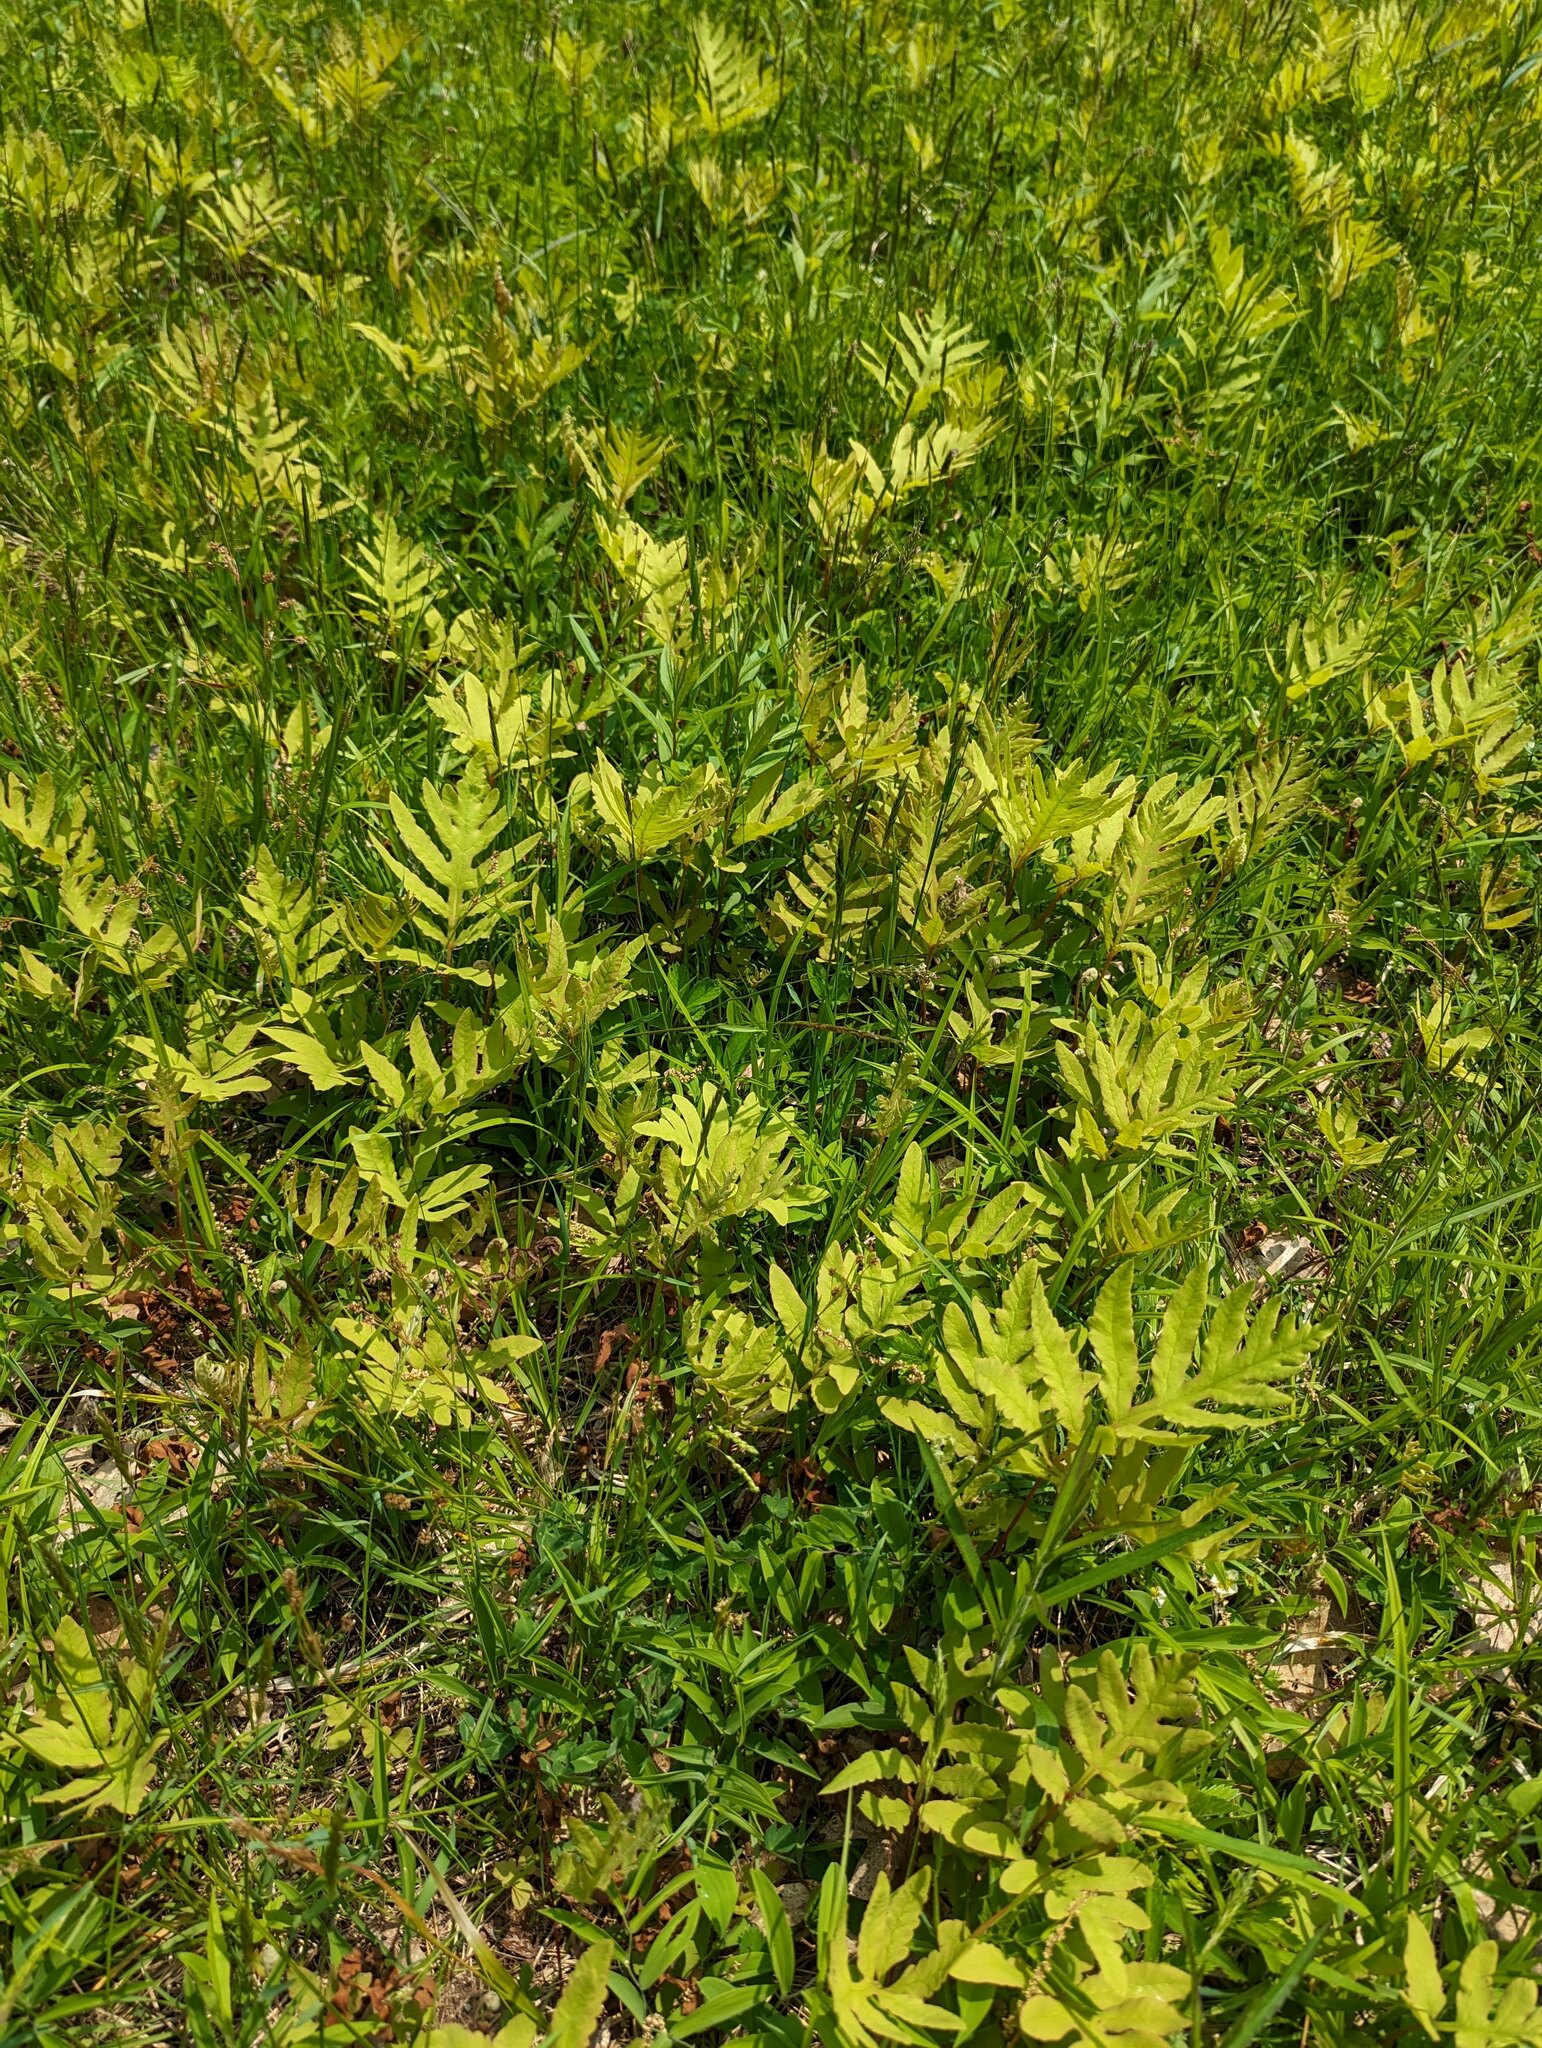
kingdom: Plantae
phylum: Tracheophyta
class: Polypodiopsida
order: Polypodiales
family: Onocleaceae
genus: Onoclea
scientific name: Onoclea sensibilis
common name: Sensitive fern
